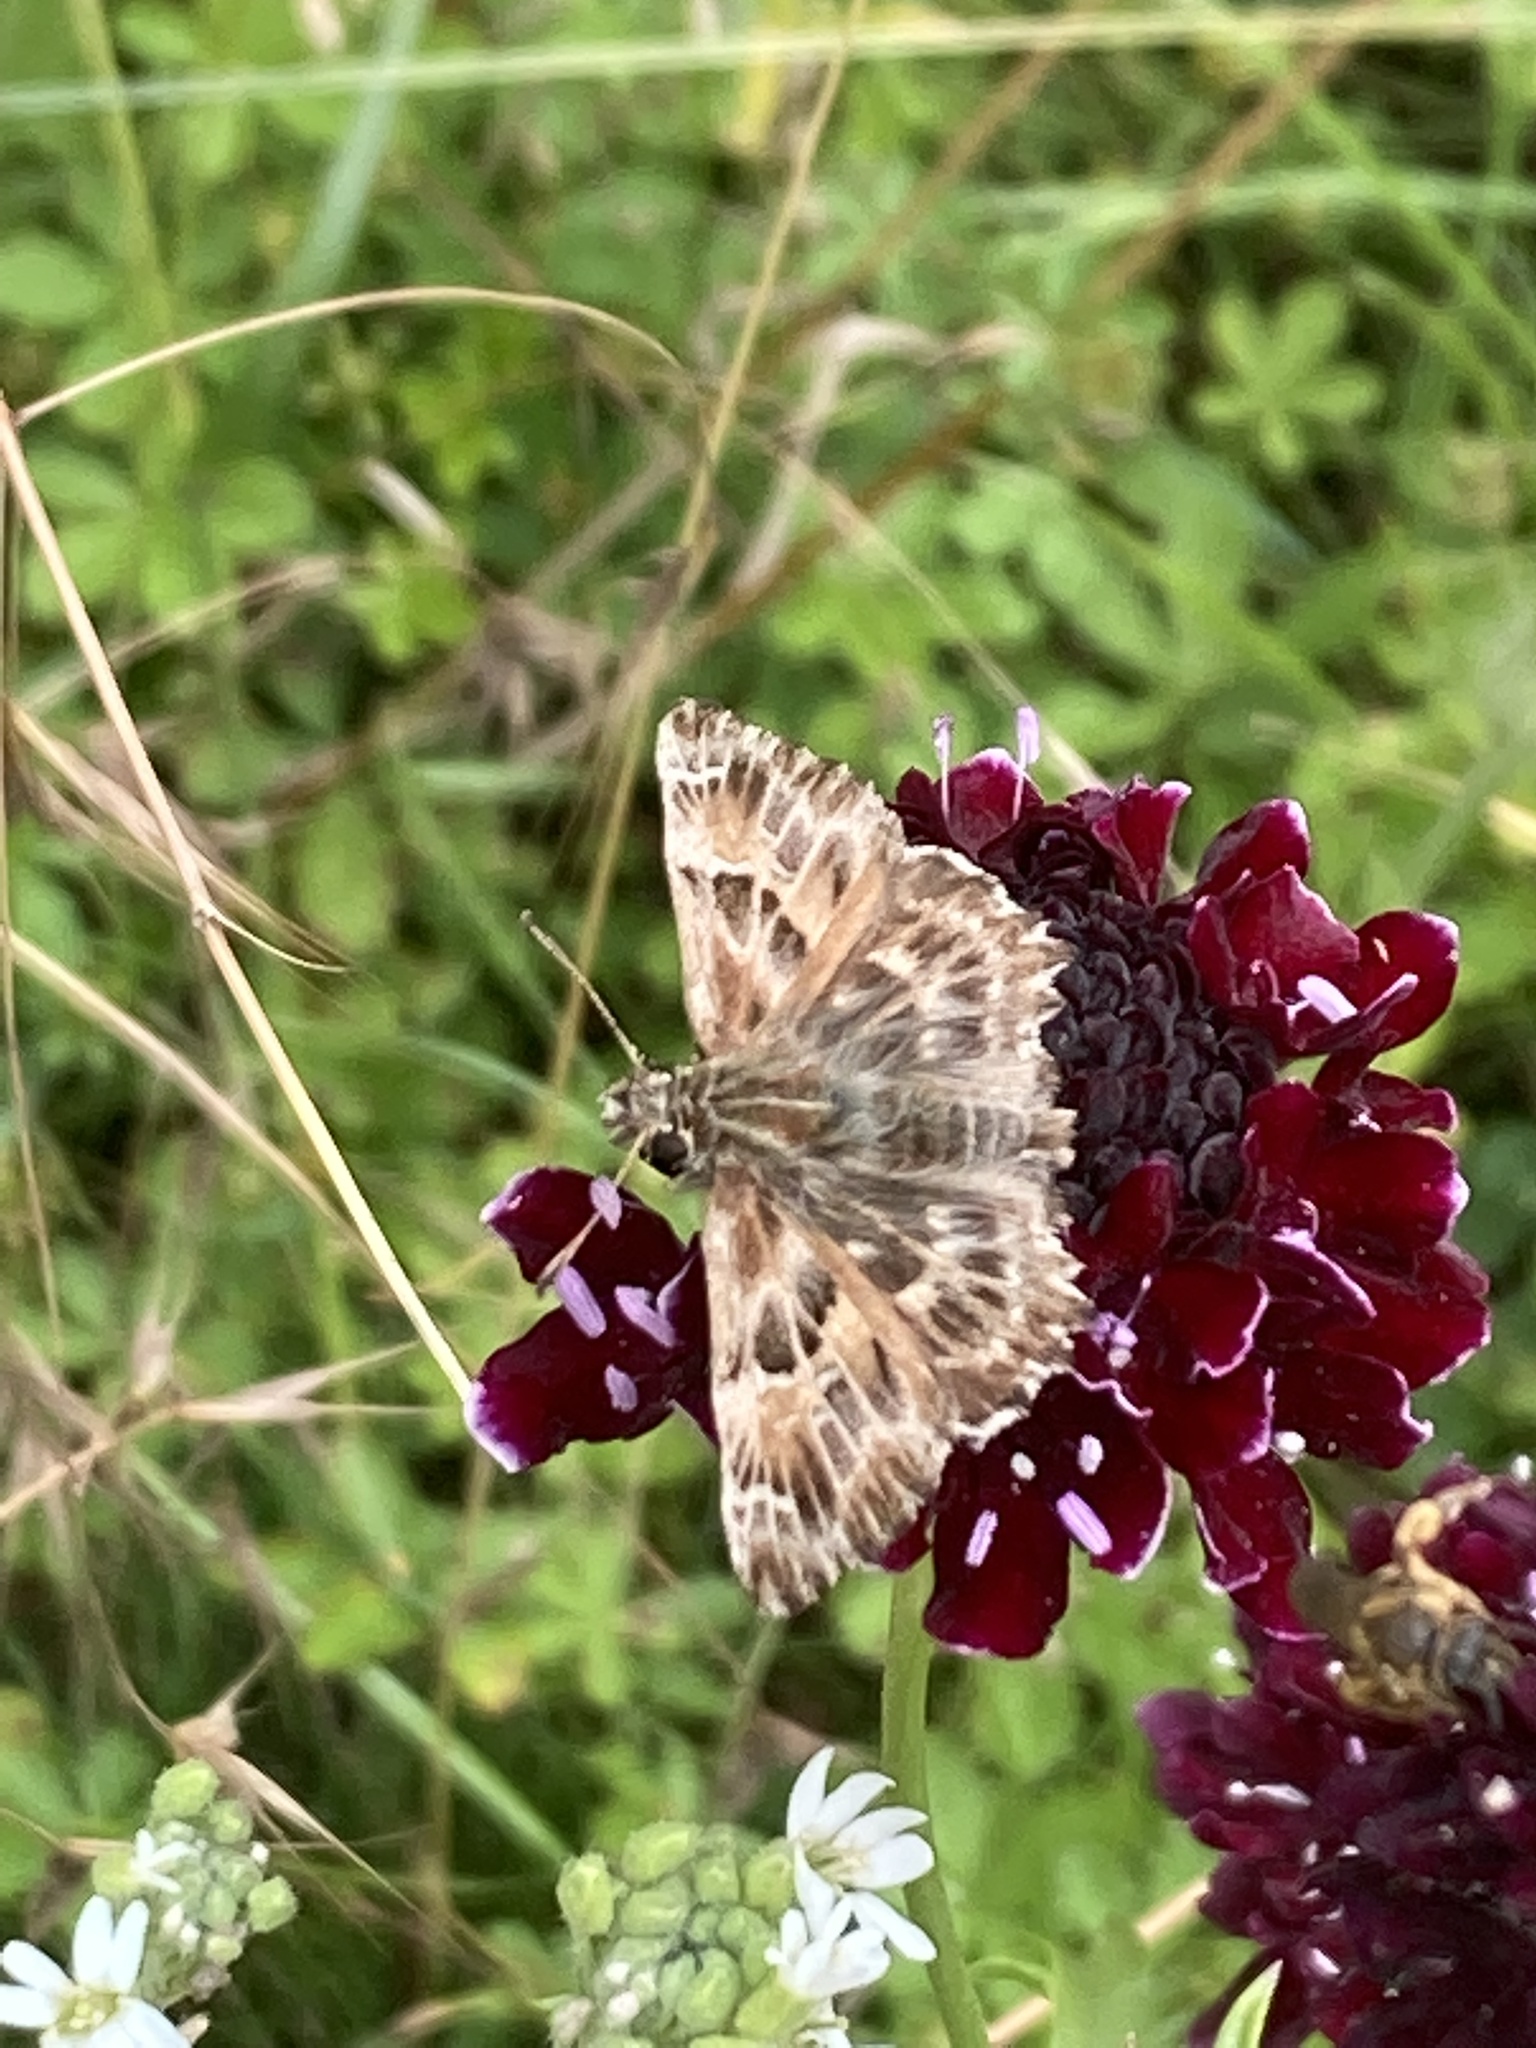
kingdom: Animalia
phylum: Arthropoda
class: Insecta
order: Lepidoptera
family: Hesperiidae
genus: Carcharodus
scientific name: Carcharodus alceae
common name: Mallow skipper
